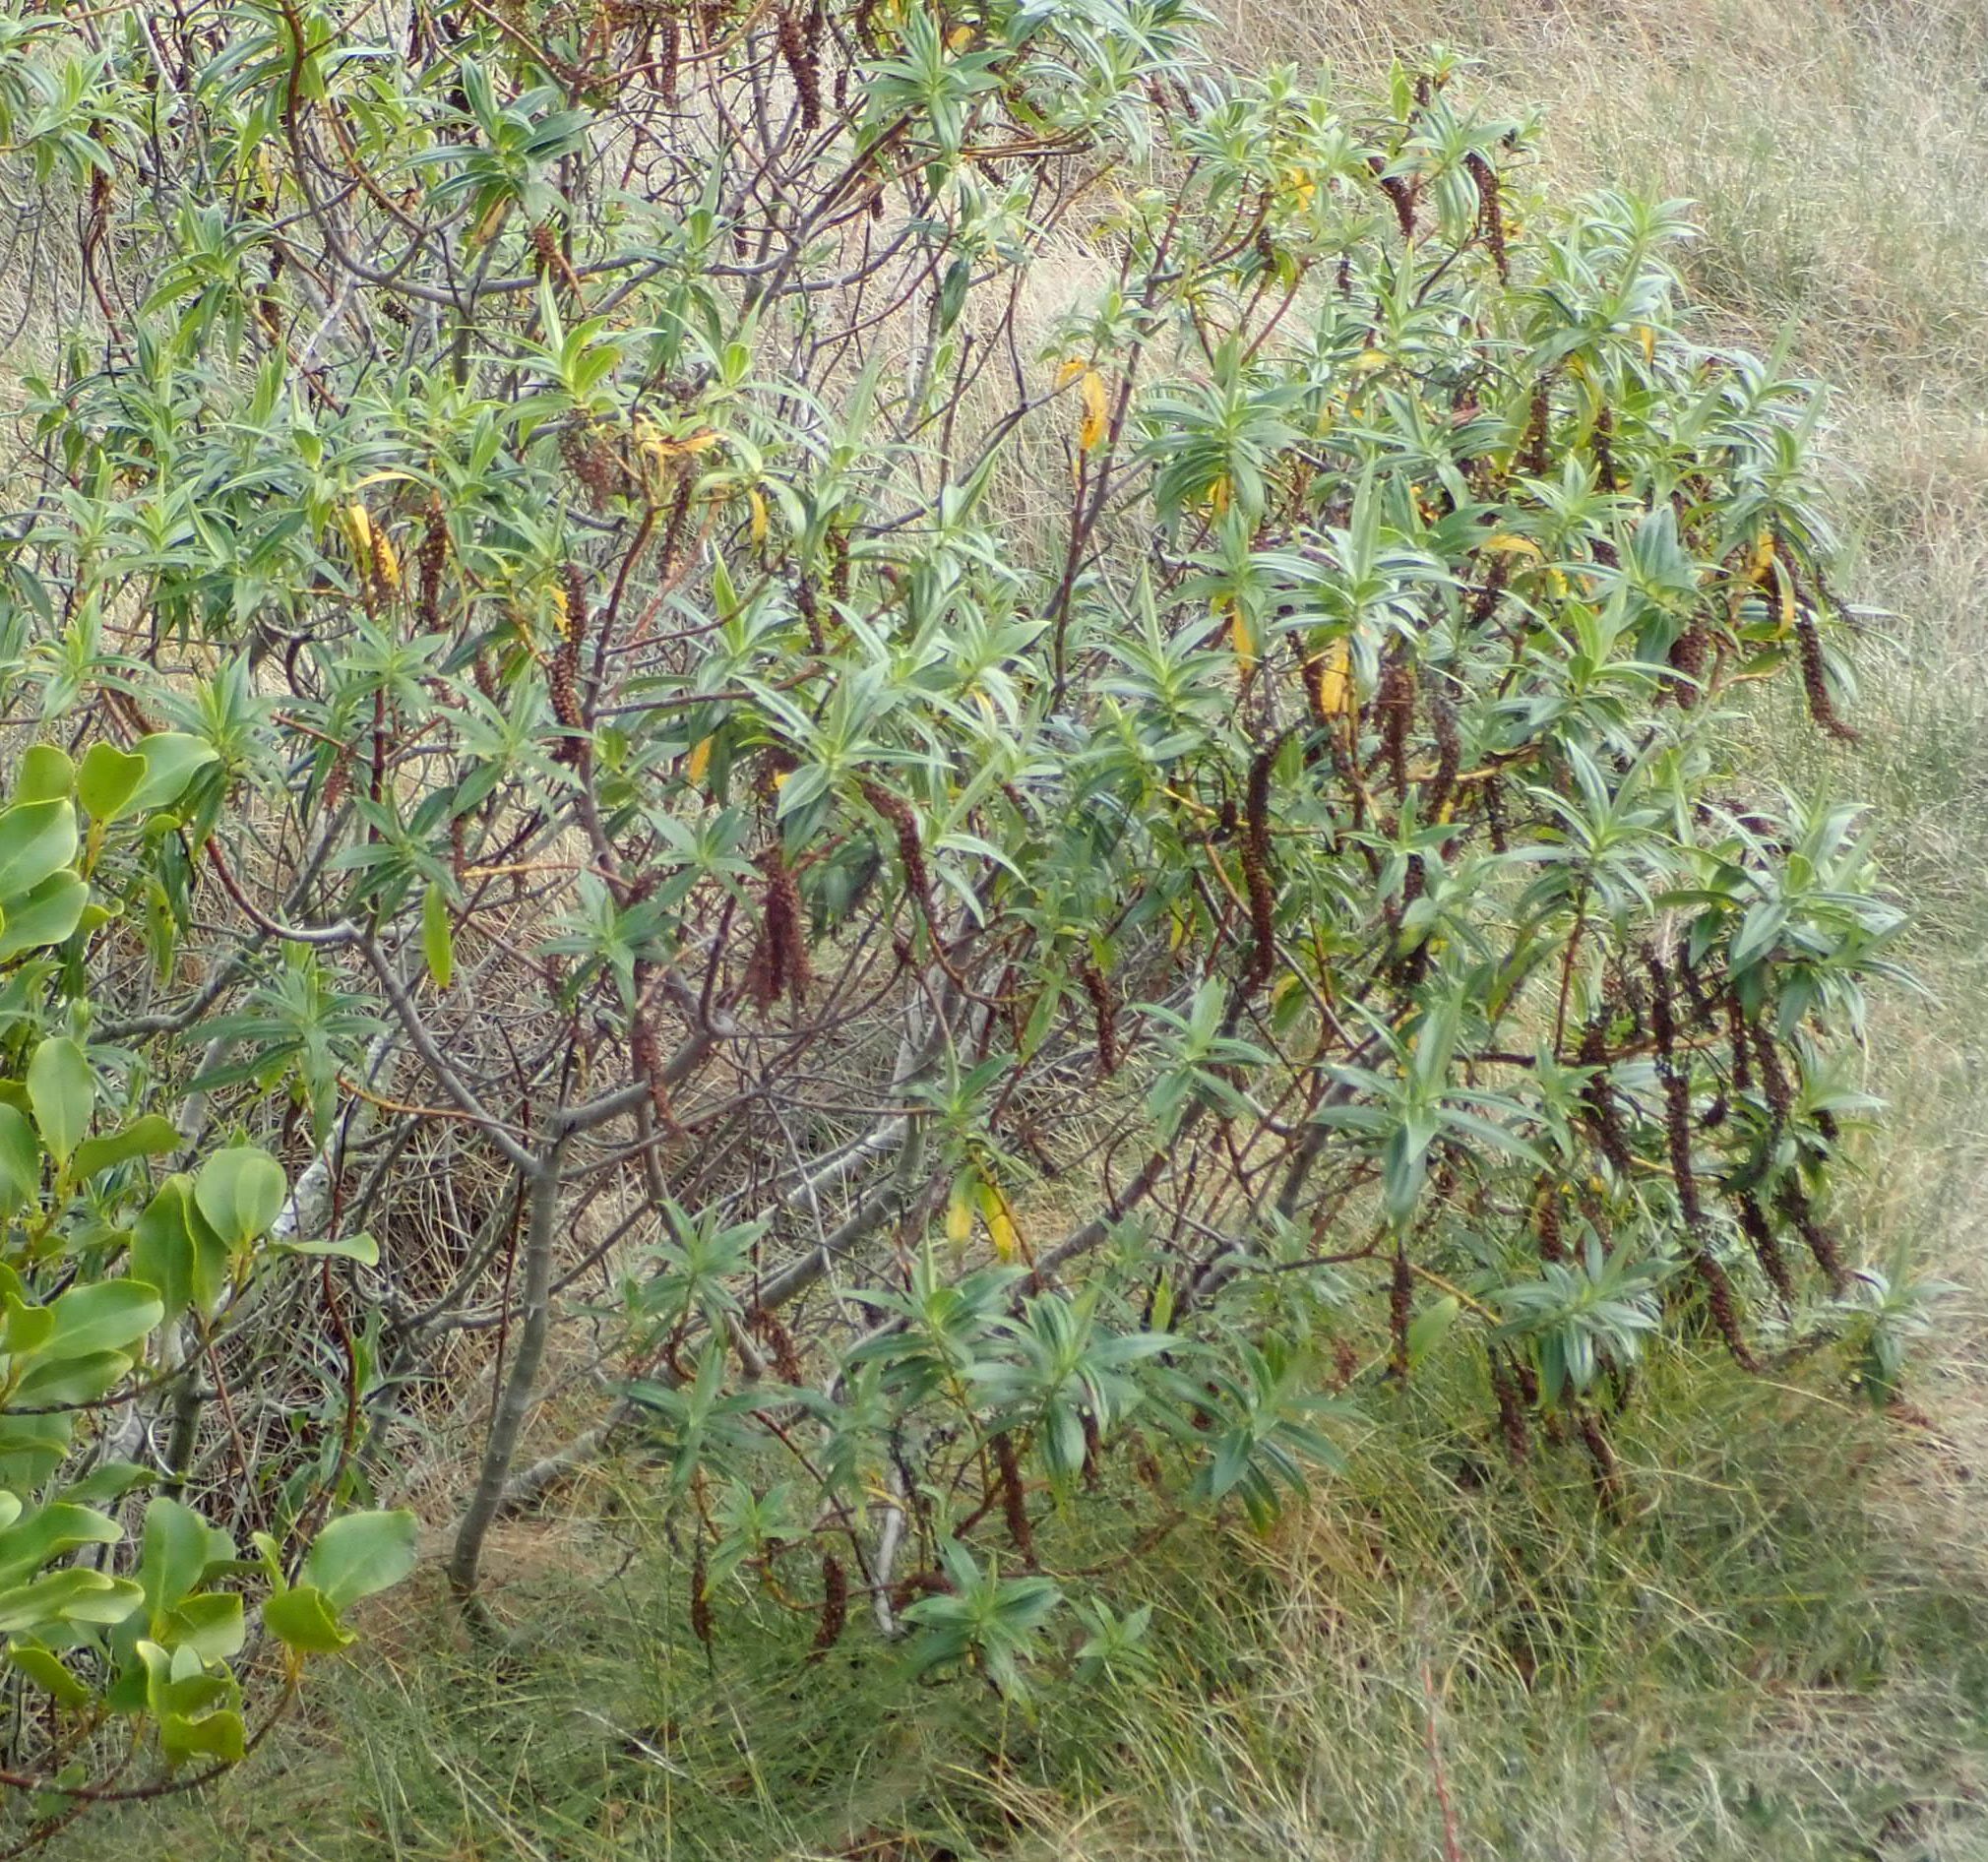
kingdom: Plantae
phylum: Tracheophyta
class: Magnoliopsida
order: Lamiales
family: Plantaginaceae
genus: Veronica
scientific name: Veronica salicifolia
